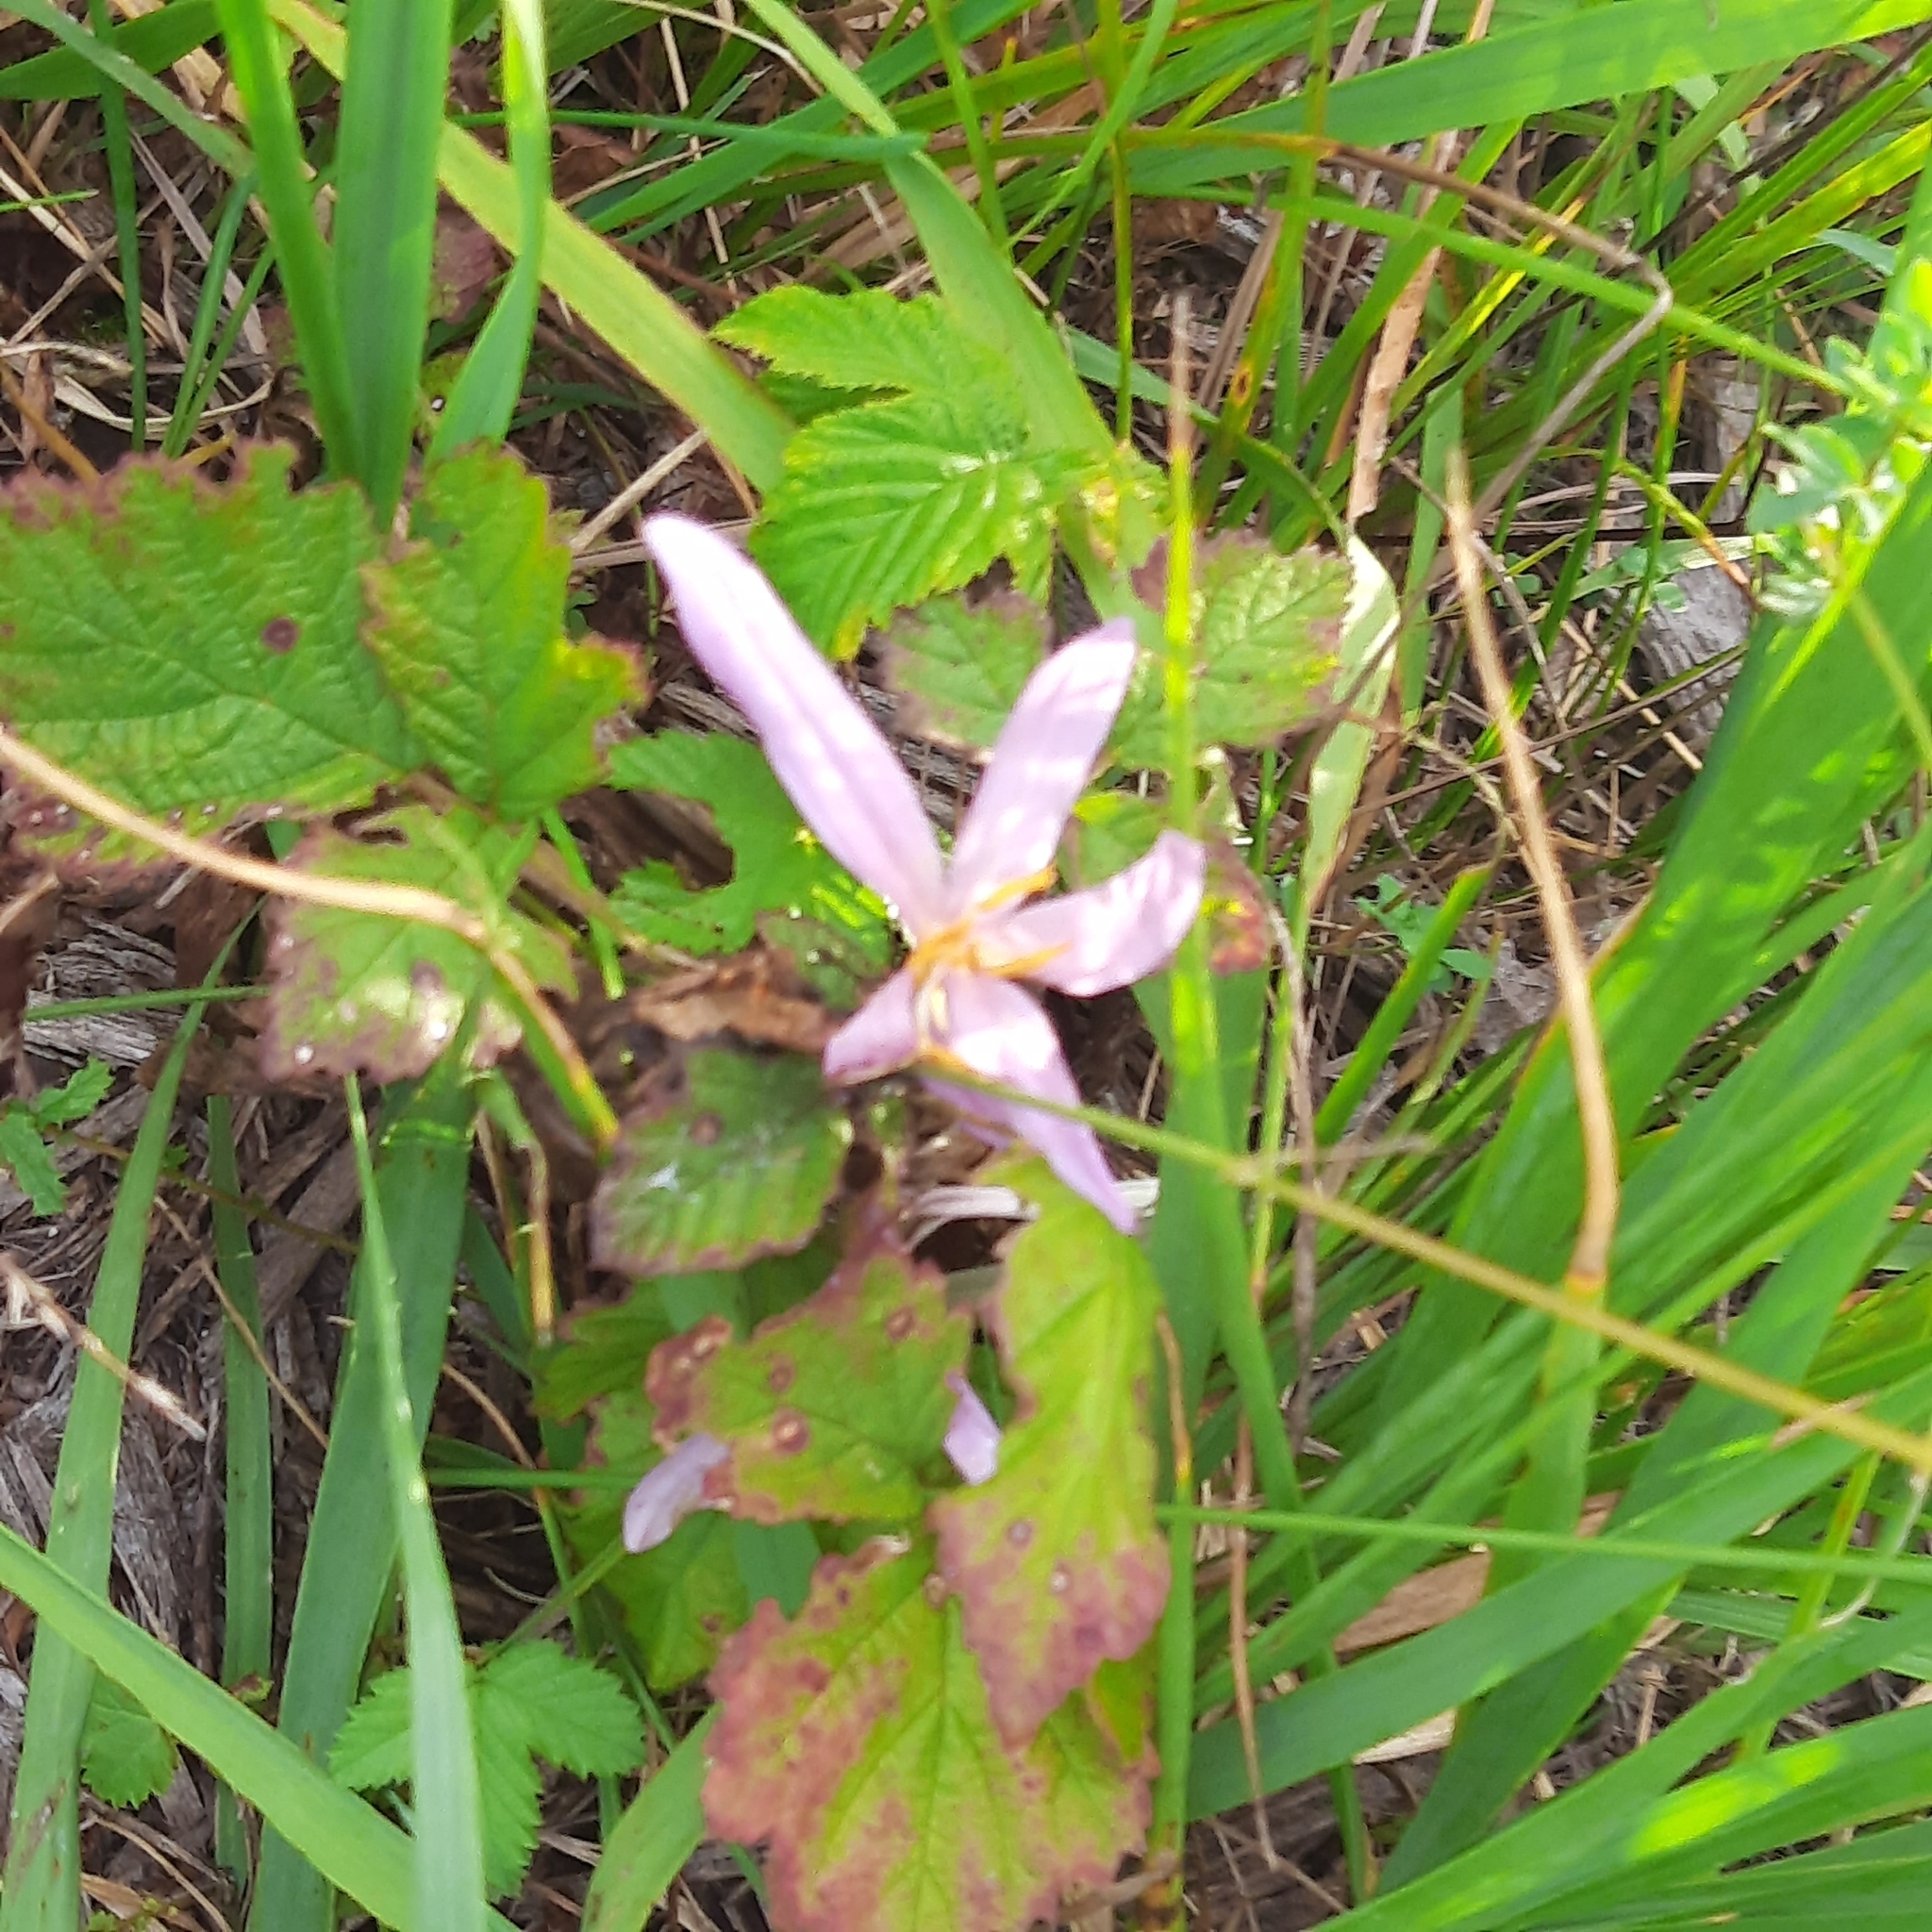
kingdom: Plantae
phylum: Tracheophyta
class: Liliopsida
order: Liliales
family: Colchicaceae
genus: Colchicum
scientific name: Colchicum autumnale
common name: Autumn crocus
